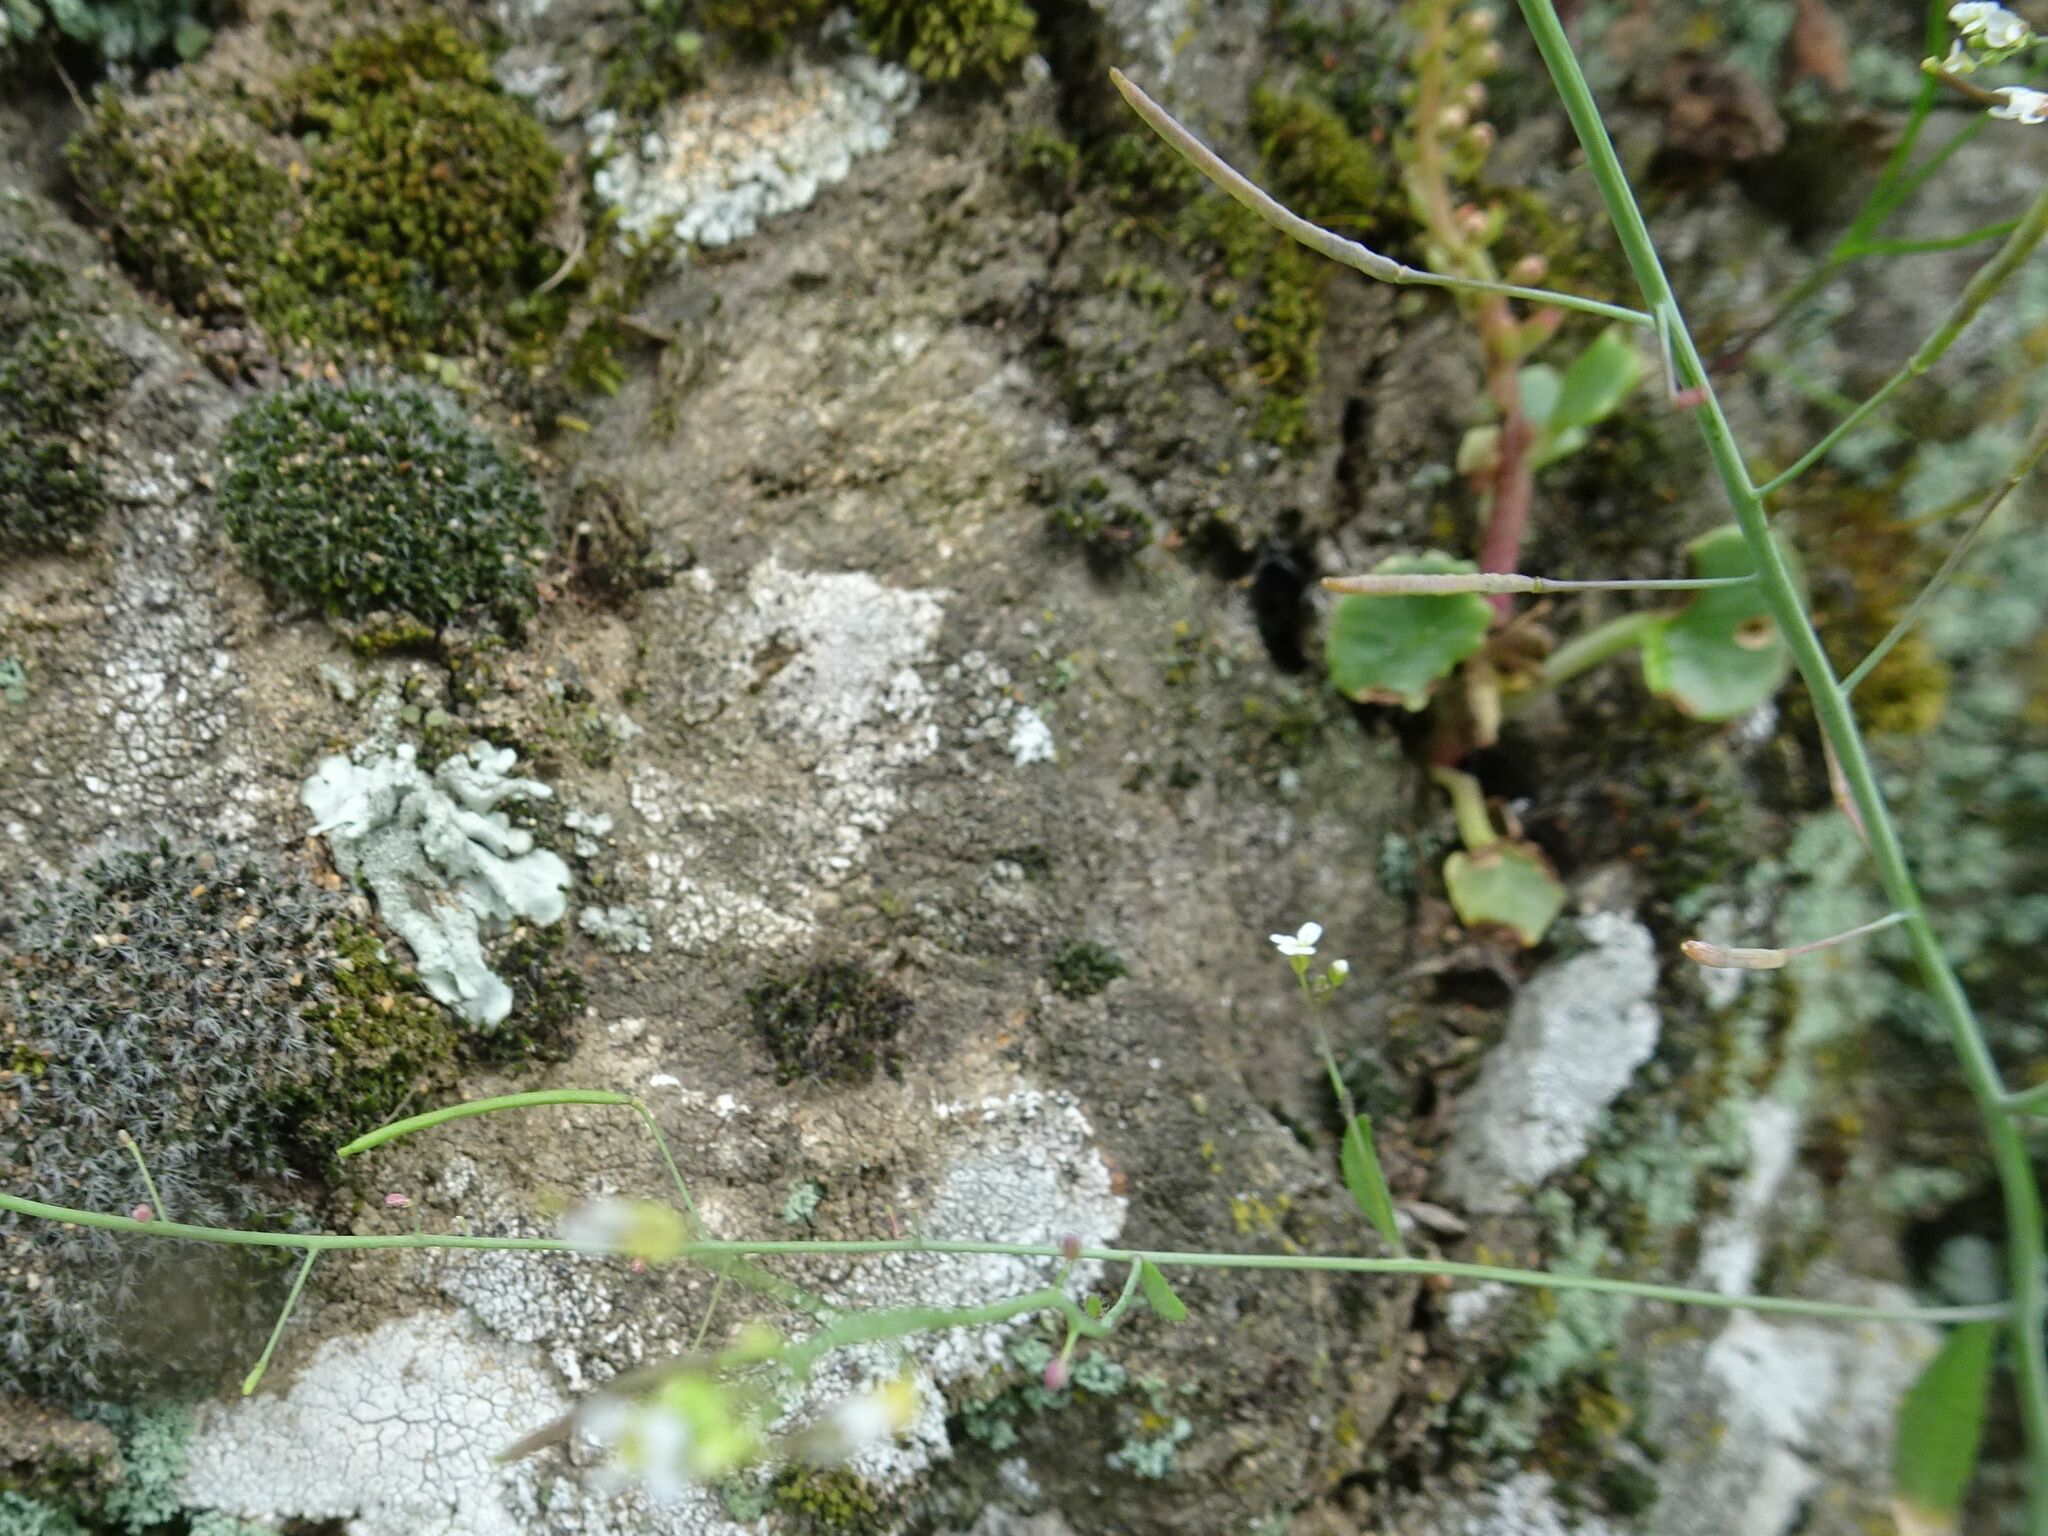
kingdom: Plantae
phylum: Tracheophyta
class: Magnoliopsida
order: Brassicales
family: Brassicaceae
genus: Arabidopsis
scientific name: Arabidopsis thaliana
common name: Thale cress
